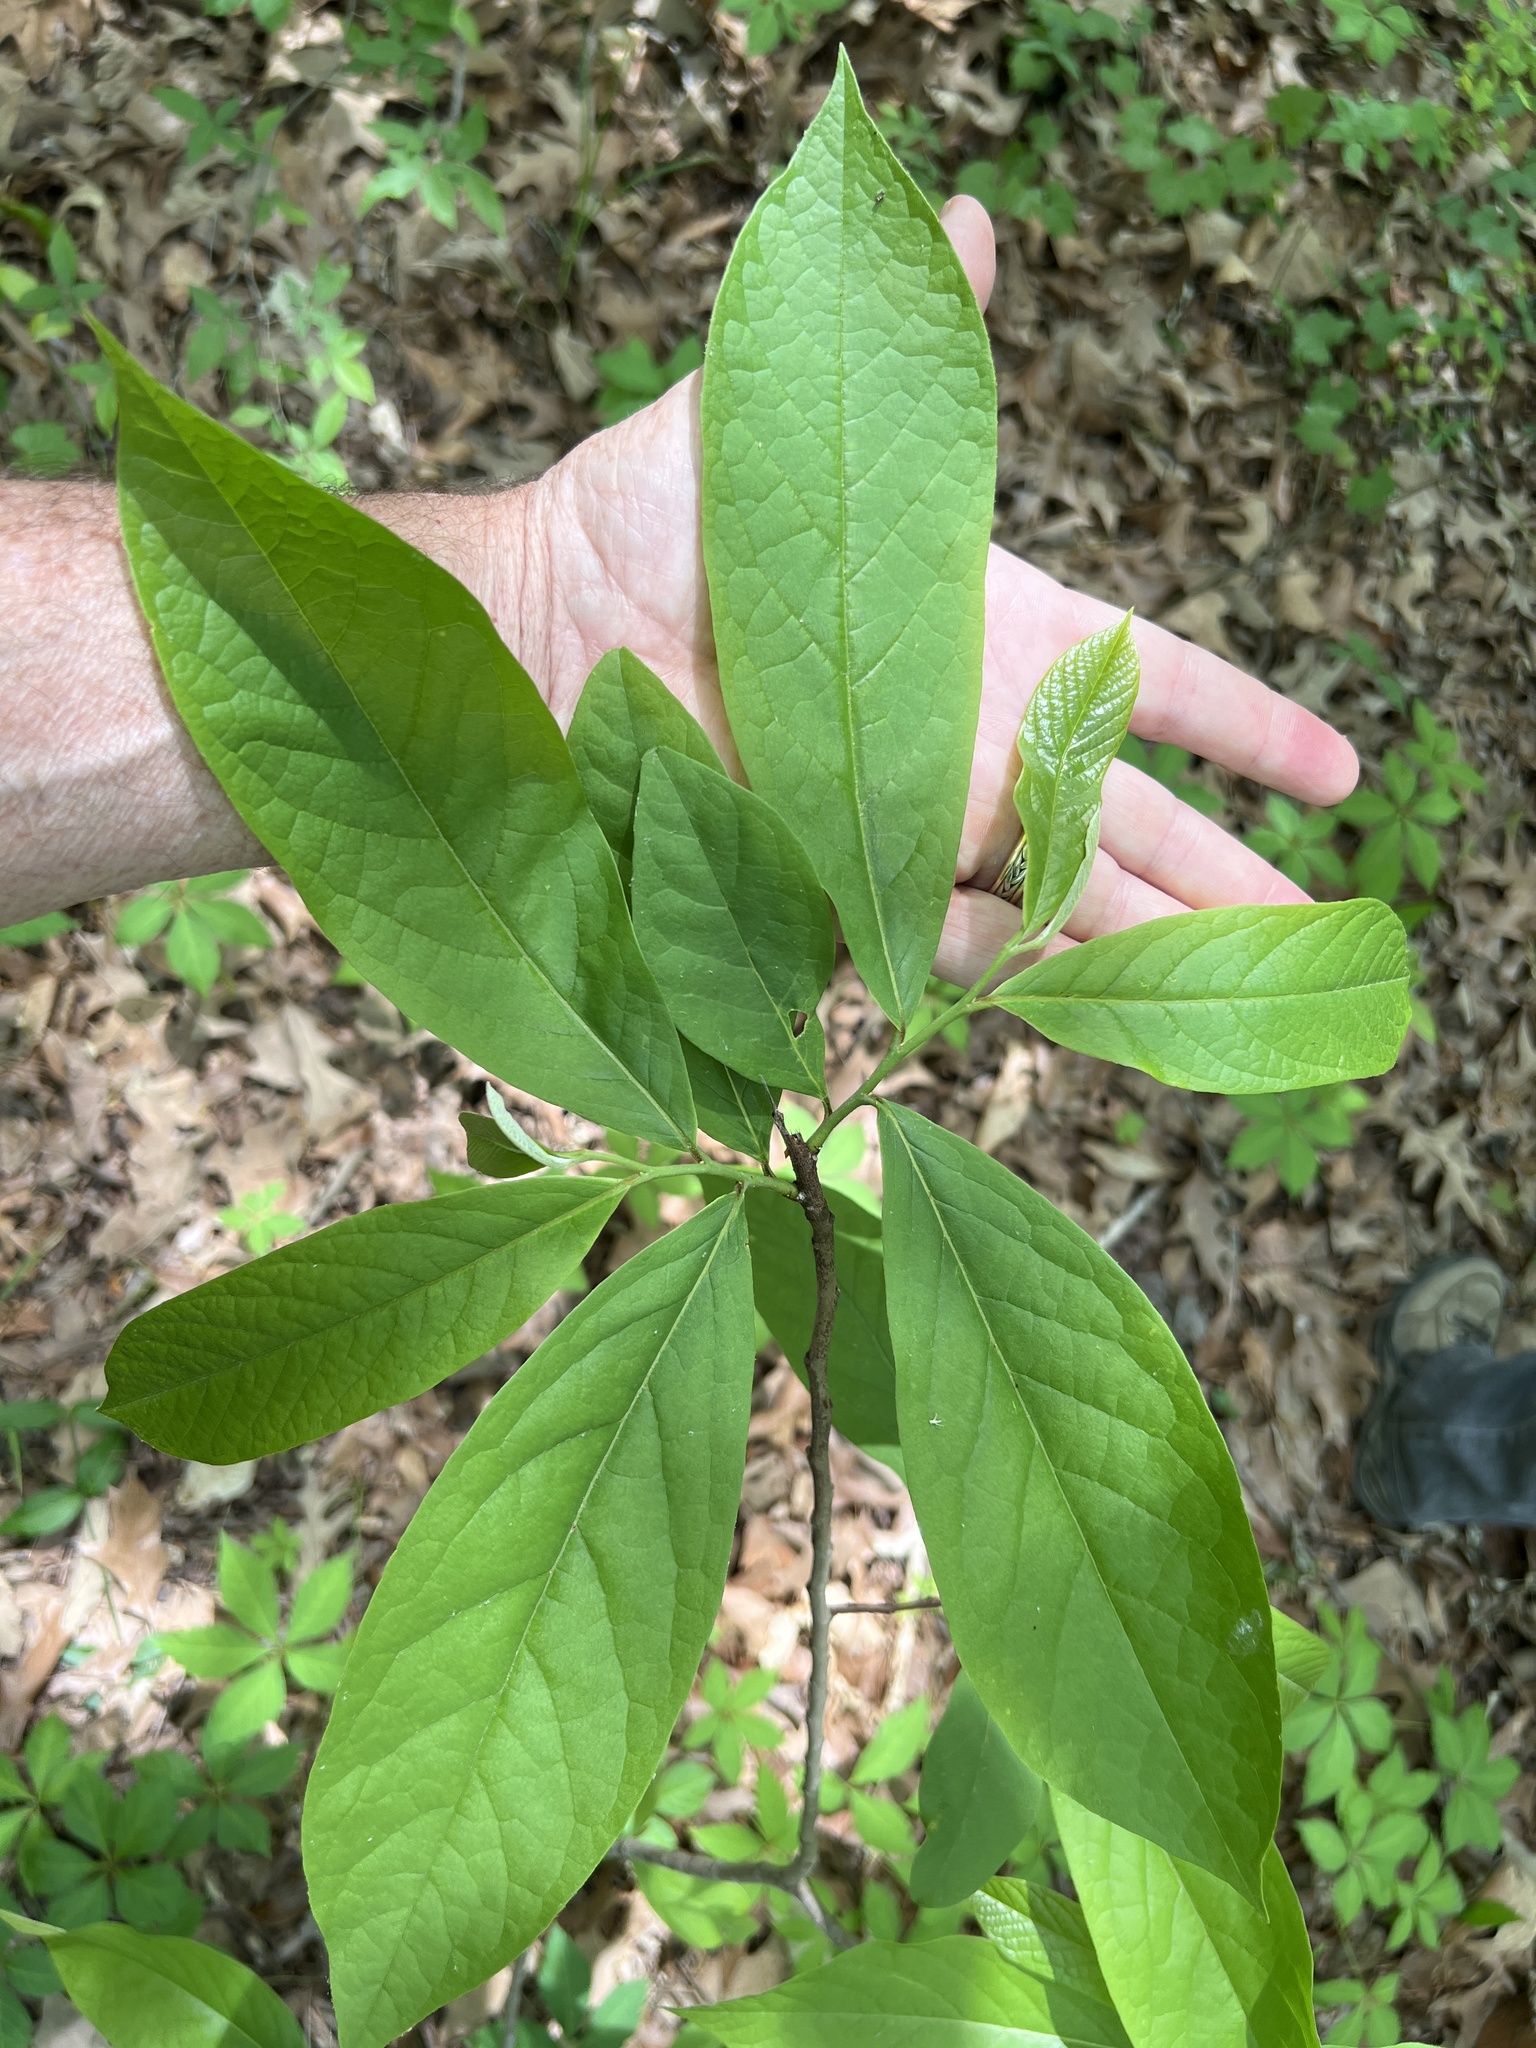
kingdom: Plantae
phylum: Tracheophyta
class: Magnoliopsida
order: Magnoliales
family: Annonaceae
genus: Asimina
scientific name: Asimina triloba
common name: Dog-banana
